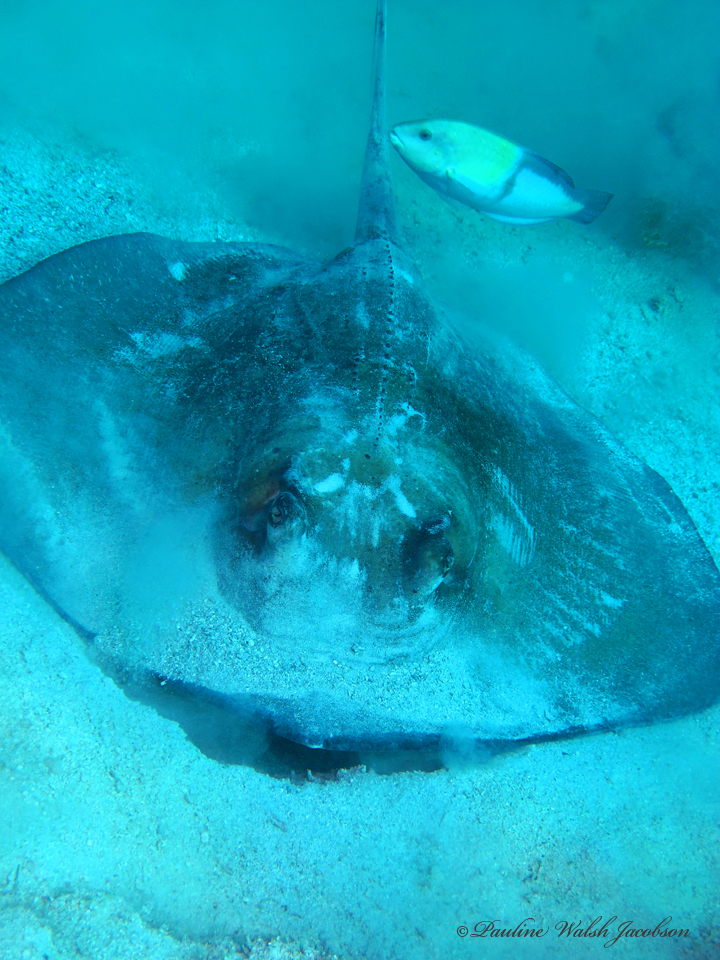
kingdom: Animalia
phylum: Chordata
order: Perciformes
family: Labridae
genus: Halichoeres
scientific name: Halichoeres garnoti
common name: Yellowhead wrasse
